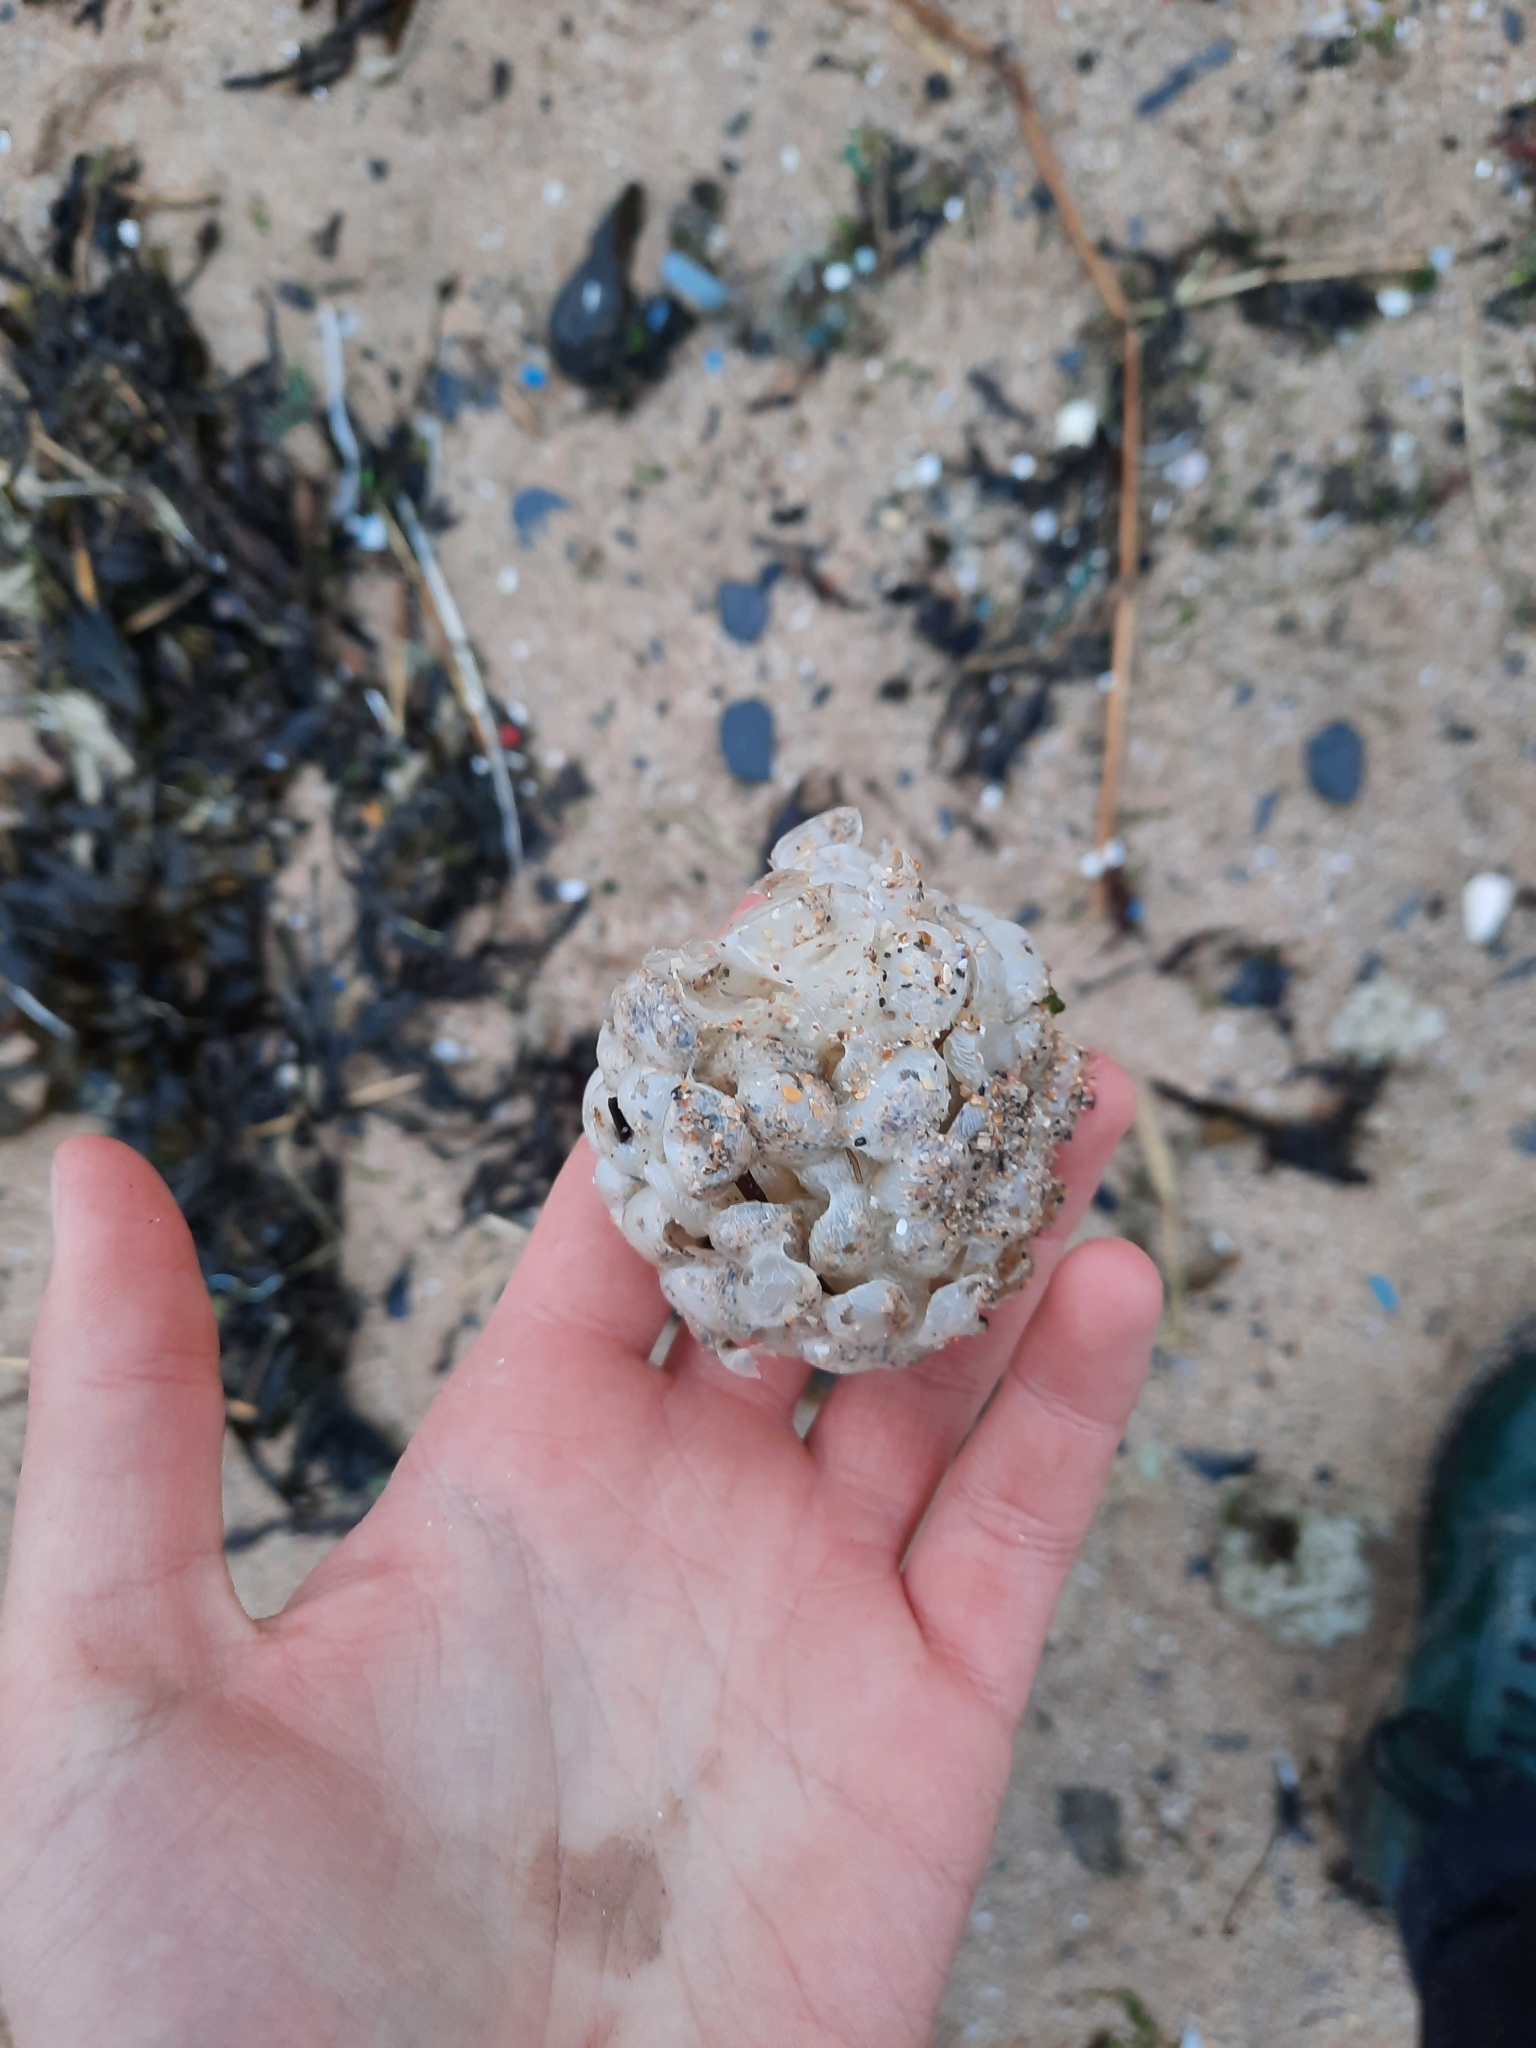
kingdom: Animalia
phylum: Mollusca
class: Gastropoda
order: Neogastropoda
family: Buccinidae
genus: Buccinum
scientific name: Buccinum undatum
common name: Common whelk
